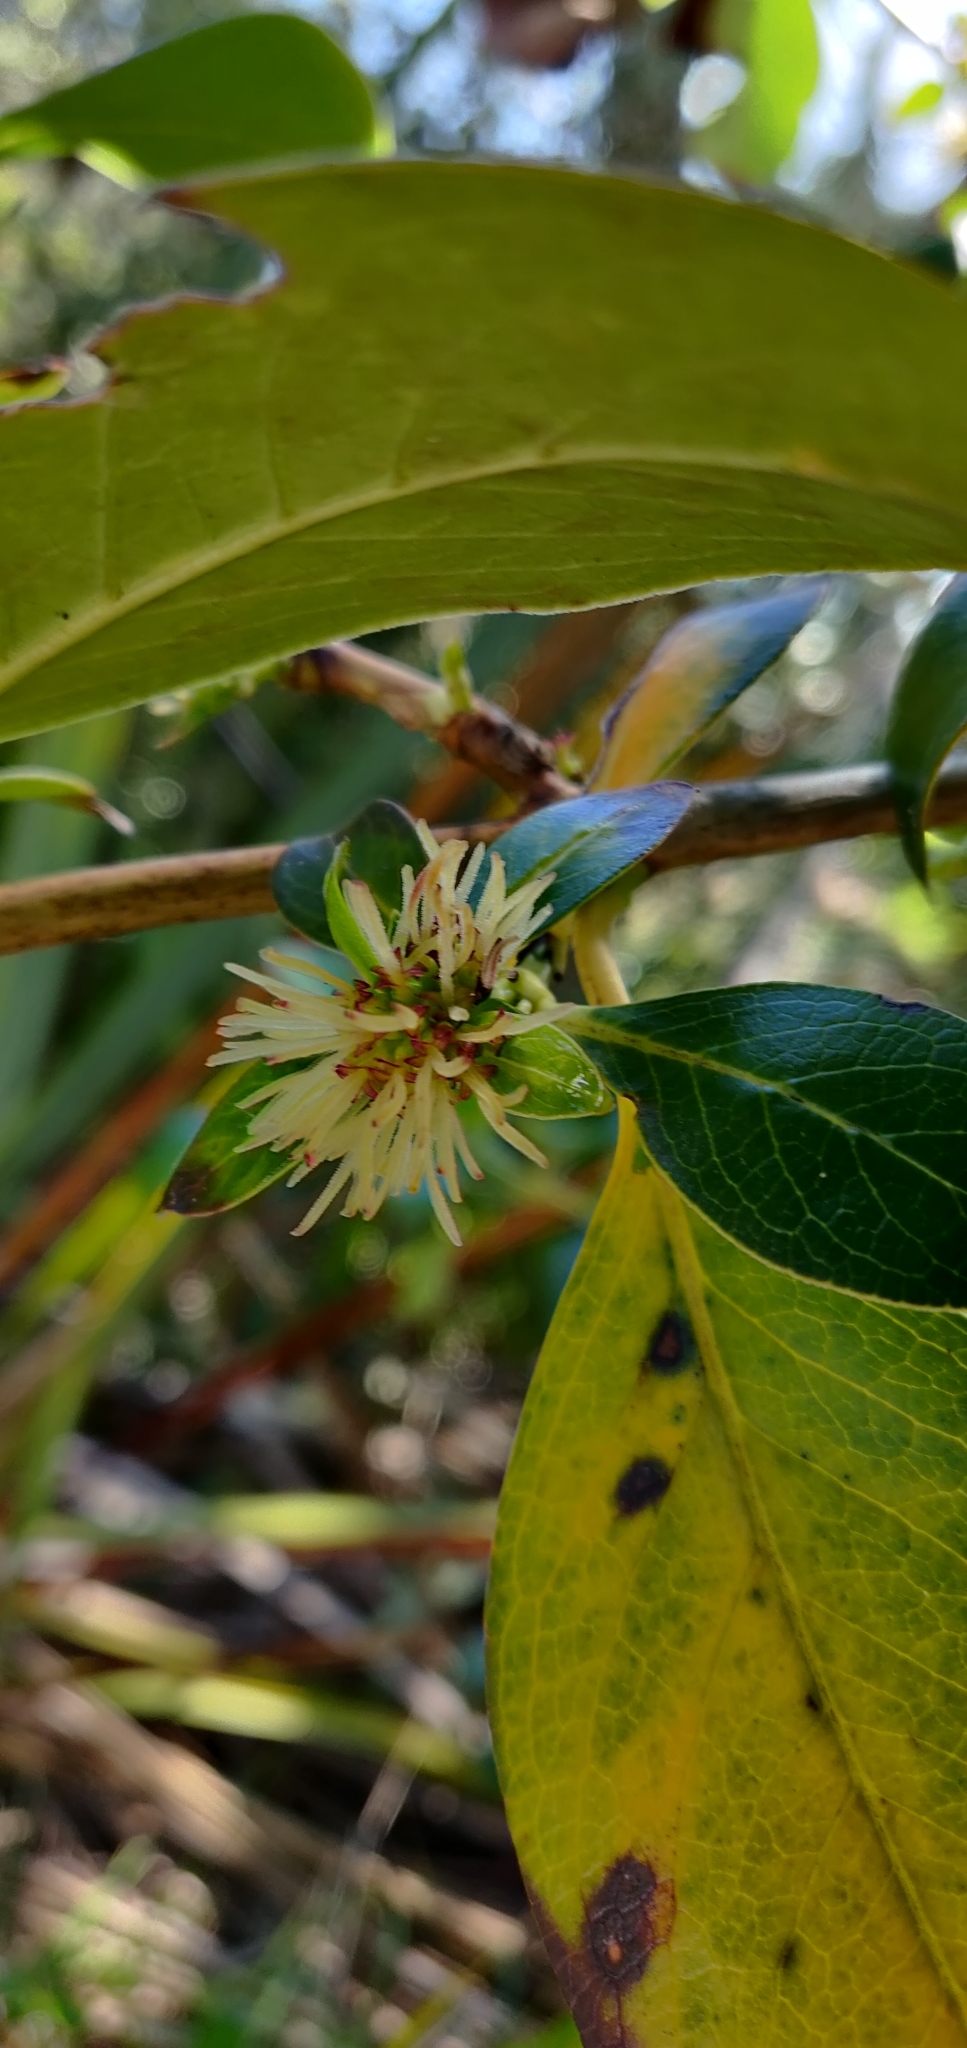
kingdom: Plantae
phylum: Tracheophyta
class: Magnoliopsida
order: Gentianales
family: Rubiaceae
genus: Coprosma
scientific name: Coprosma robusta
